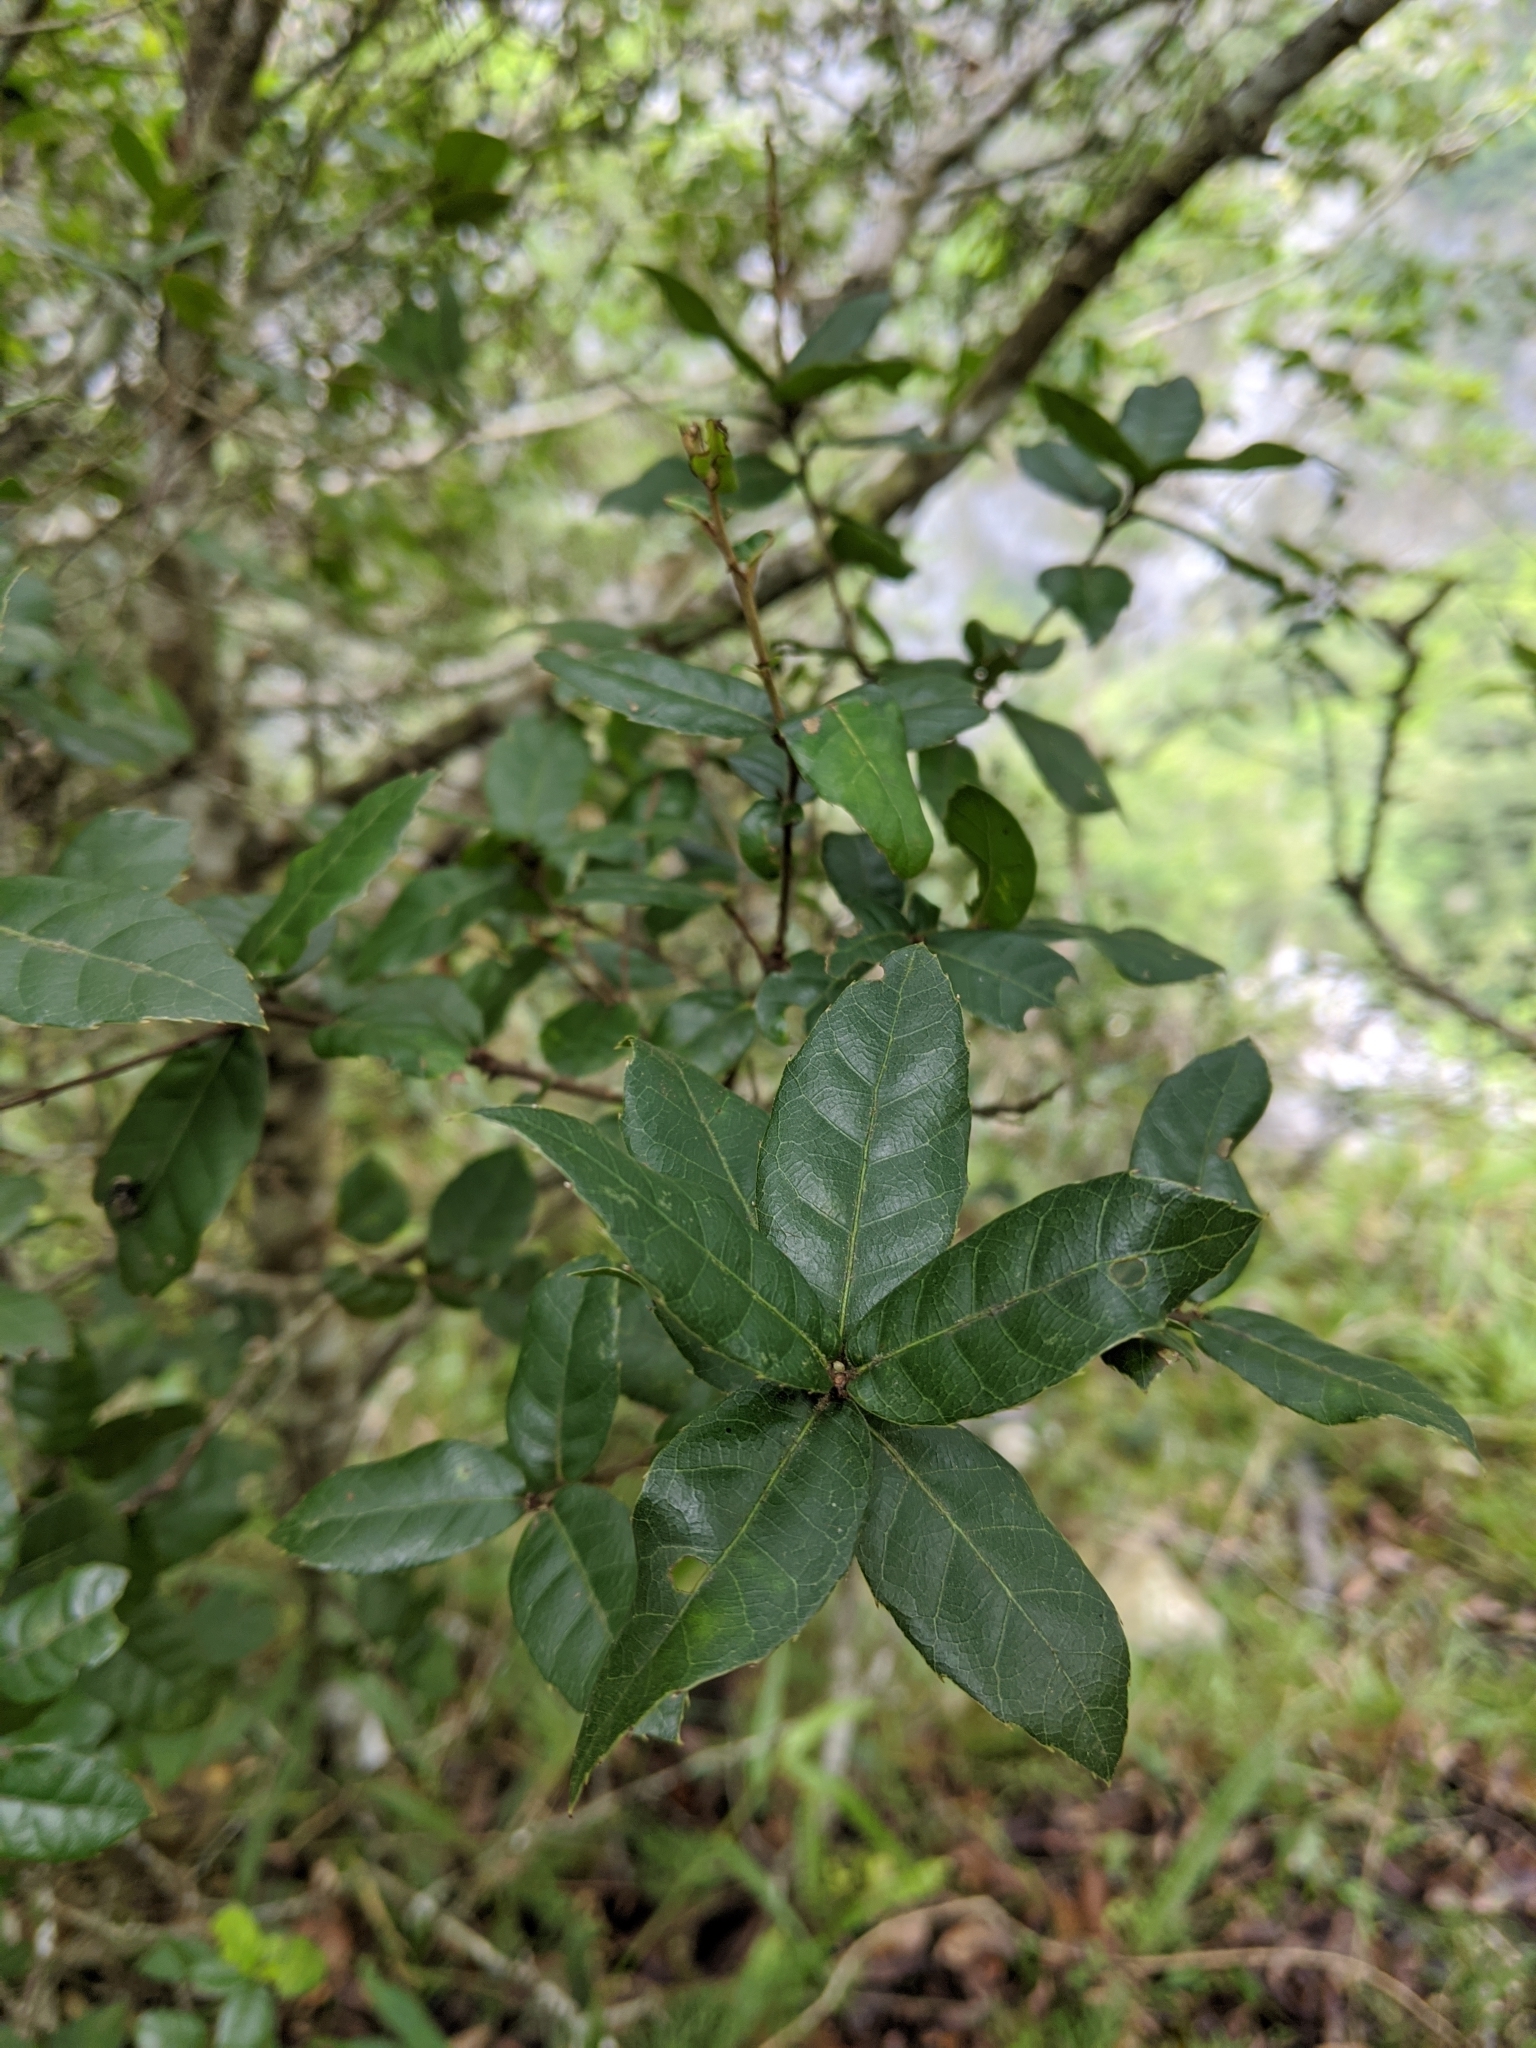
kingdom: Plantae
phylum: Tracheophyta
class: Magnoliopsida
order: Fagales
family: Fagaceae
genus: Quercus
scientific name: Quercus tarokoensis
